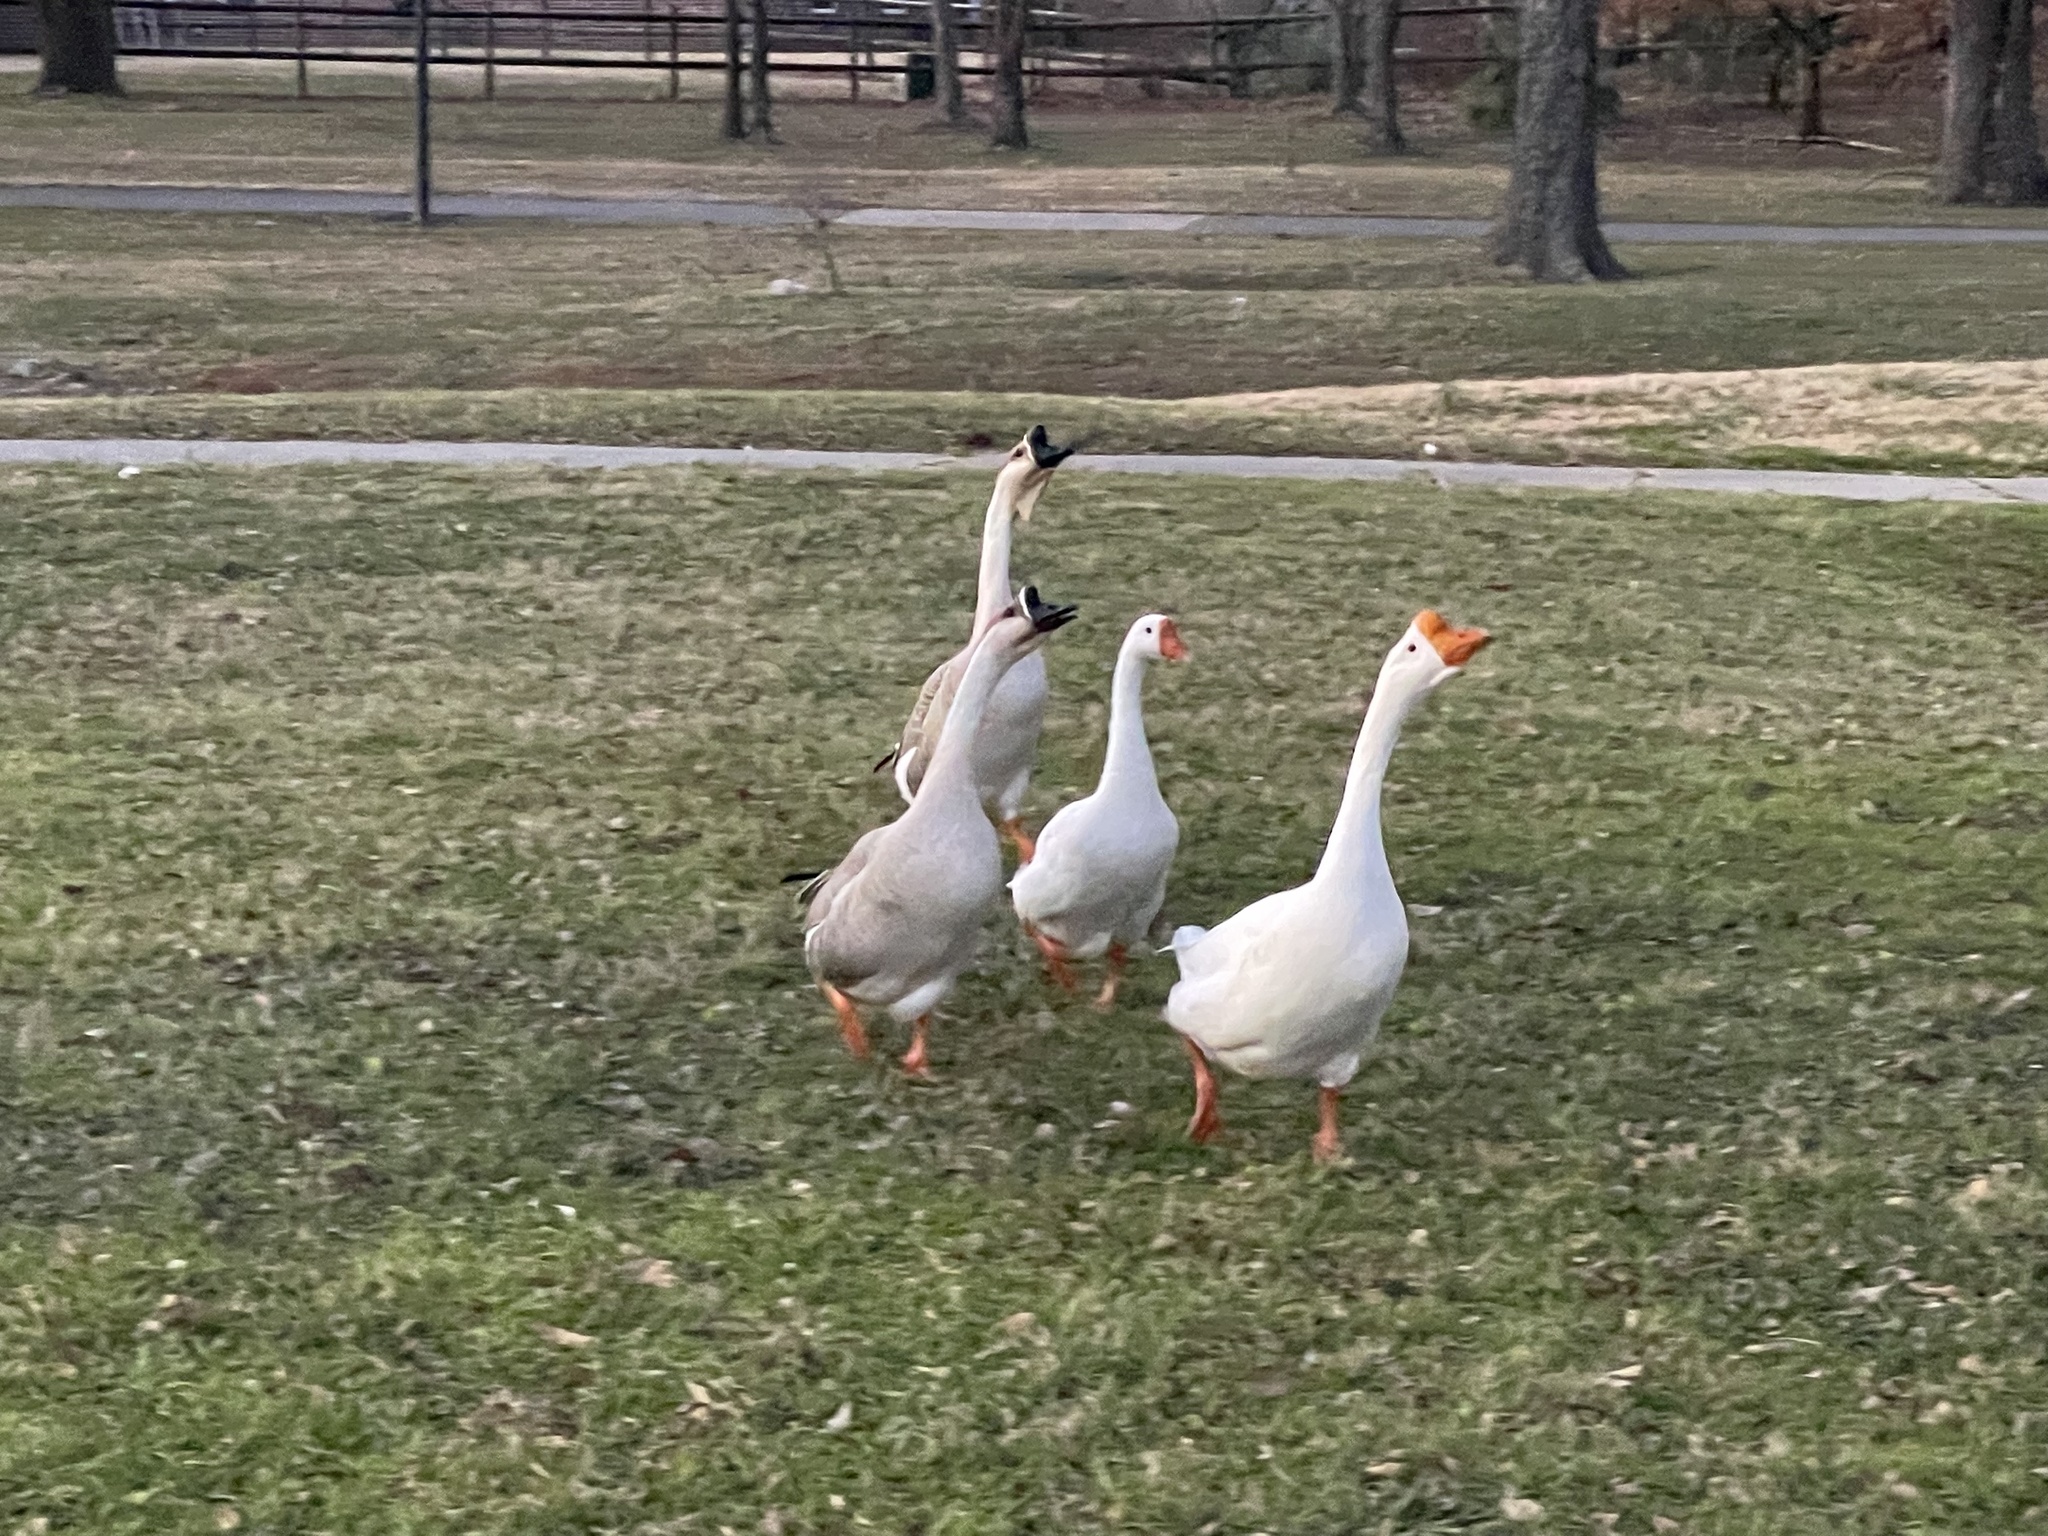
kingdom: Animalia
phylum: Chordata
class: Aves
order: Anseriformes
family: Anatidae
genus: Anser
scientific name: Anser cygnoides
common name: Swan goose
